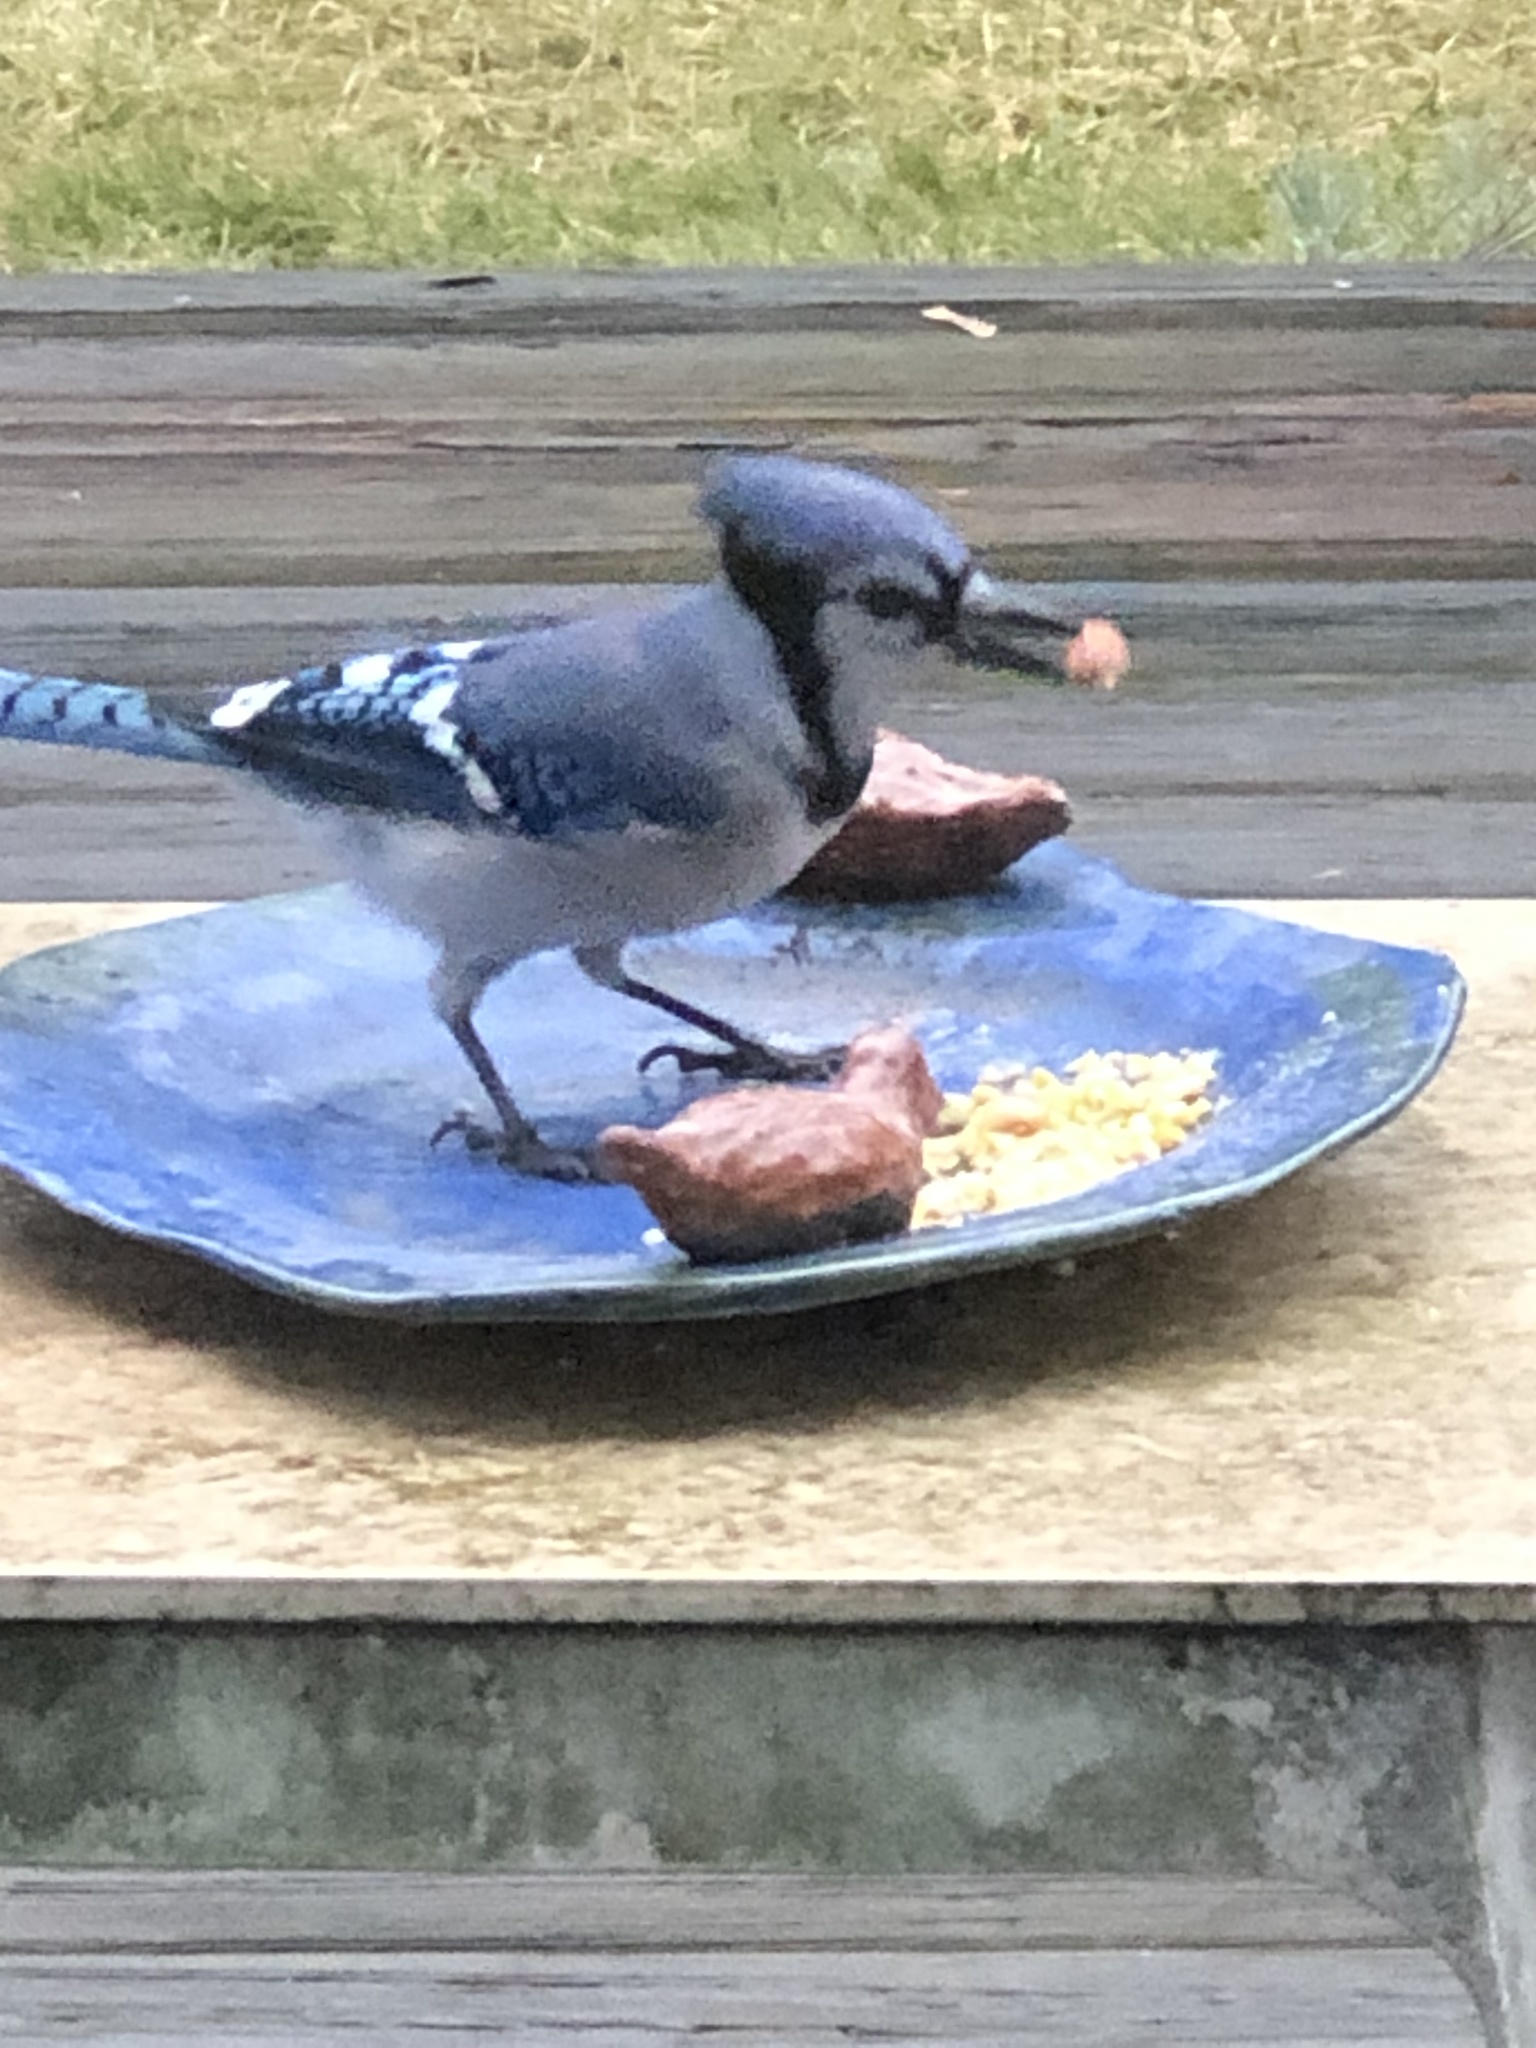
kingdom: Animalia
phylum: Chordata
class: Aves
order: Passeriformes
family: Corvidae
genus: Cyanocitta
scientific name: Cyanocitta cristata
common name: Blue jay
